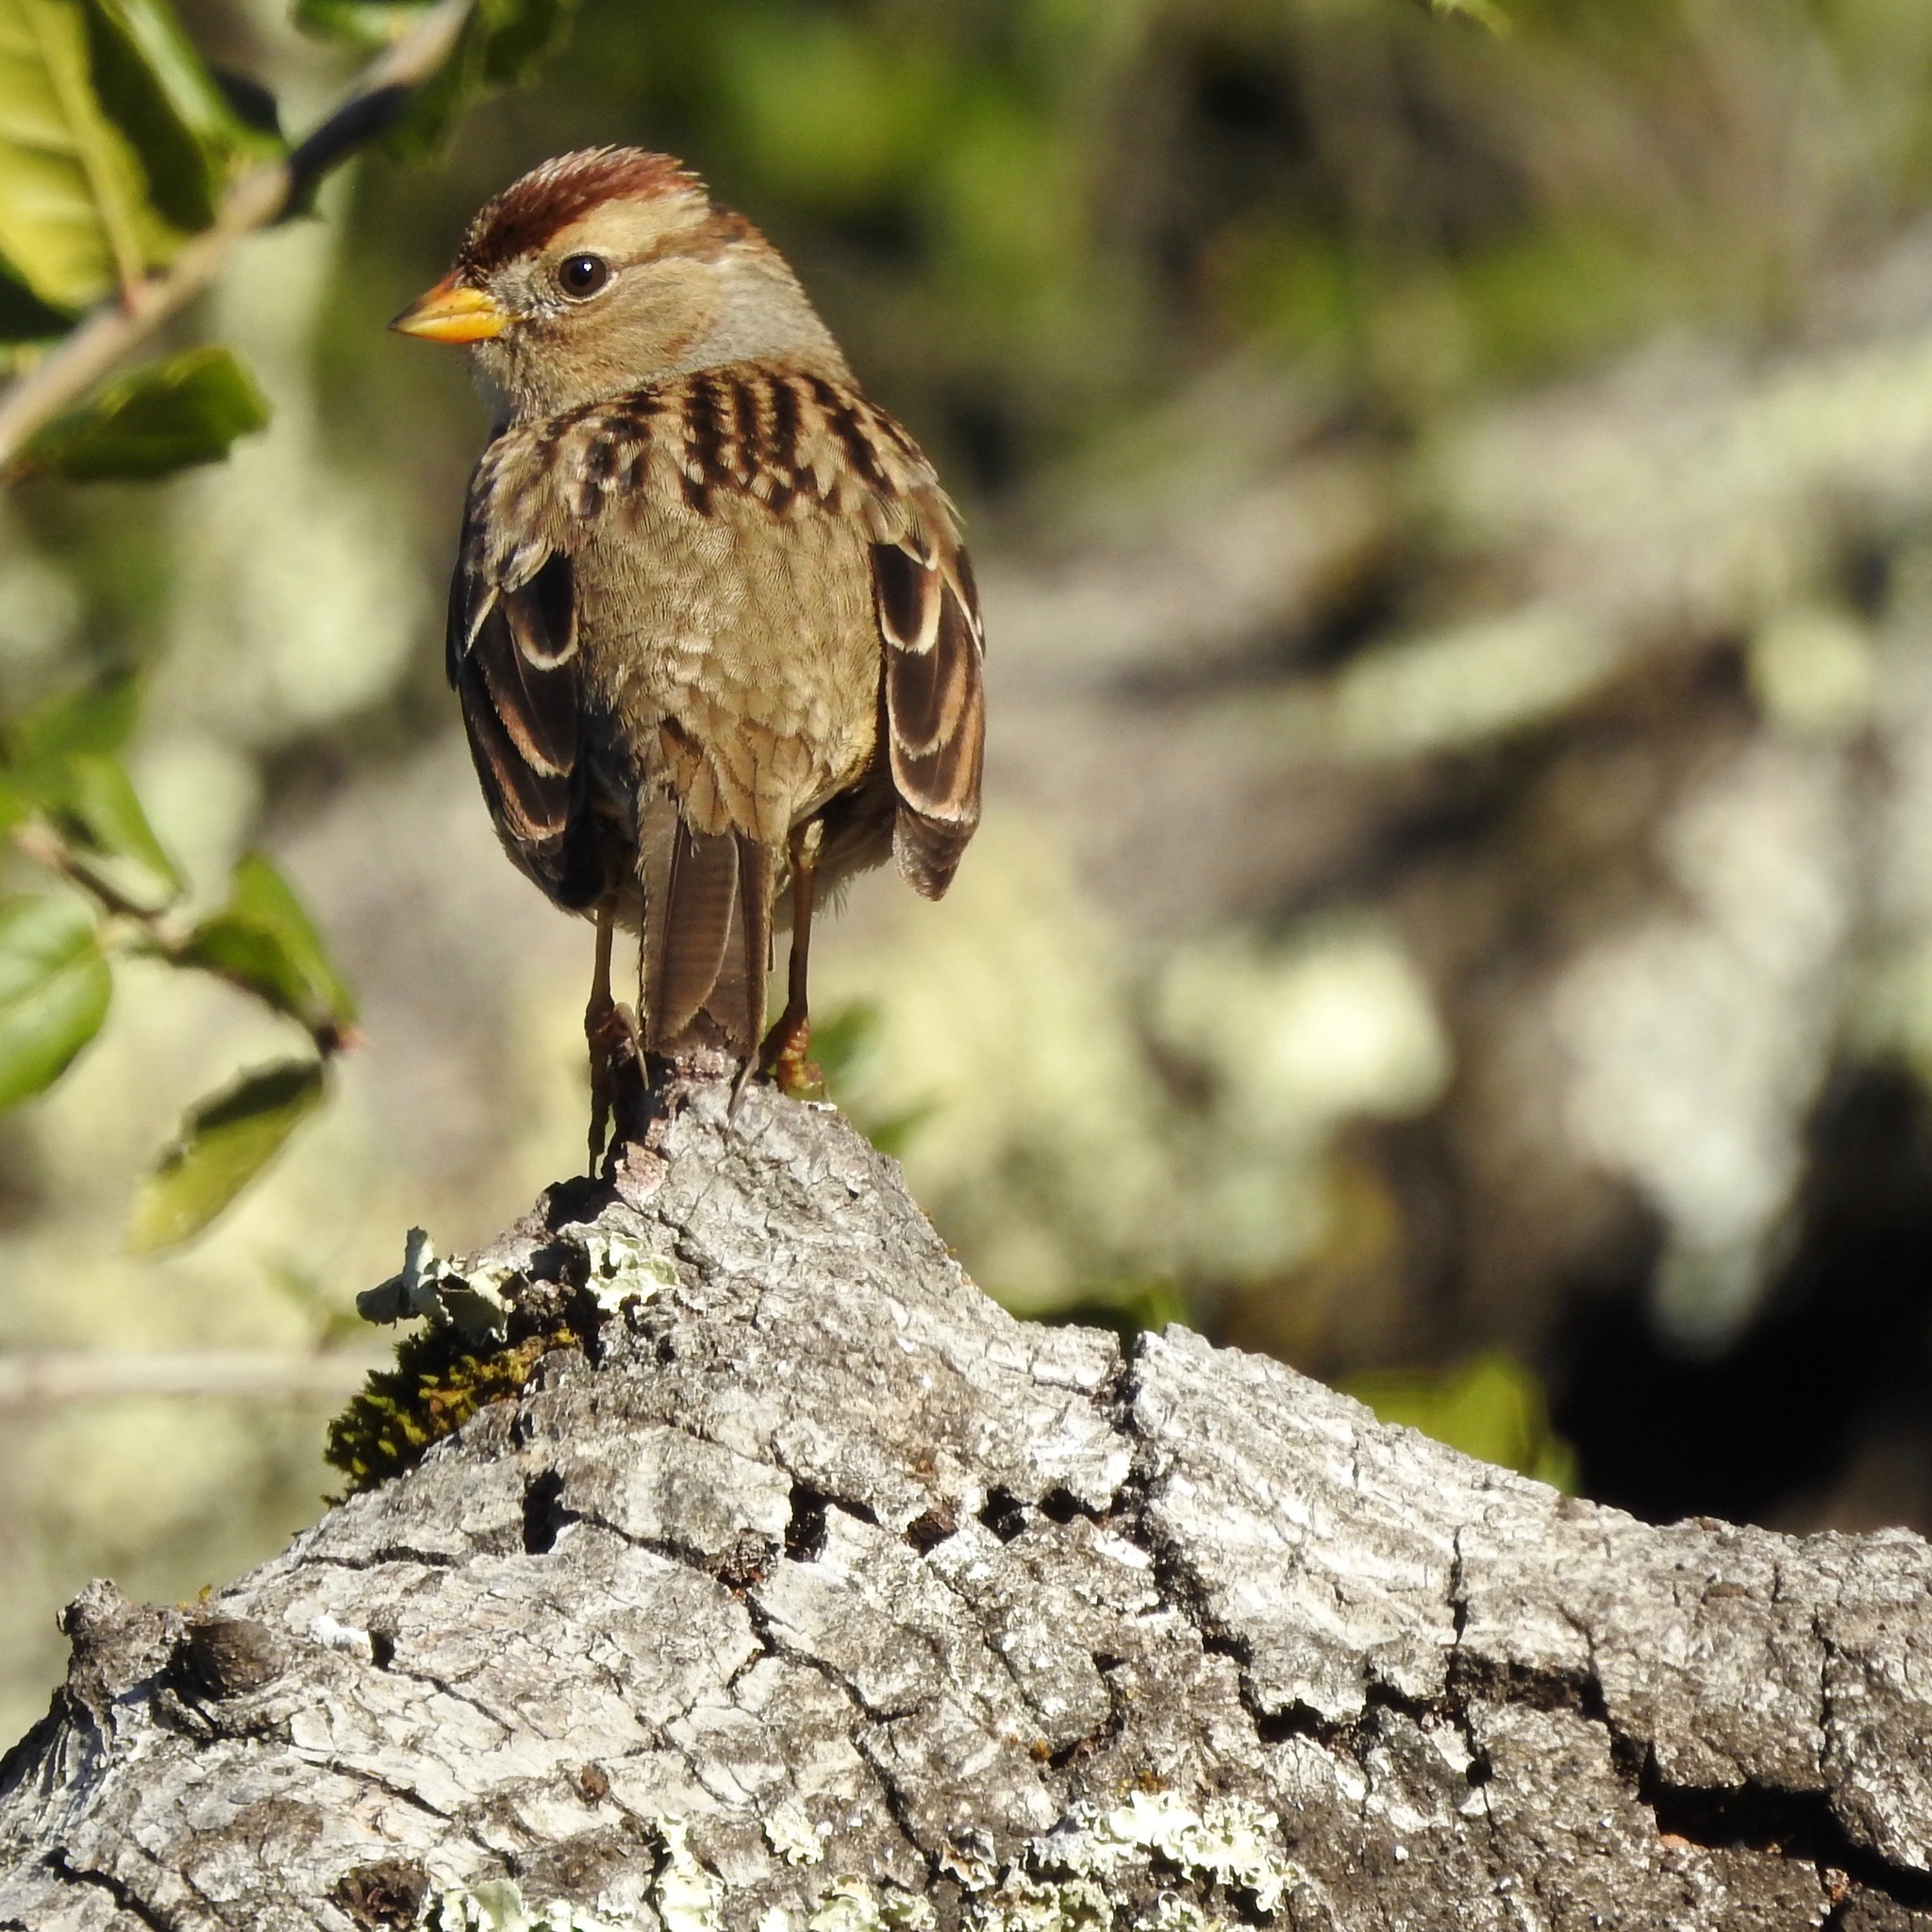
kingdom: Animalia
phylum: Chordata
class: Aves
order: Passeriformes
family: Passerellidae
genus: Zonotrichia
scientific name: Zonotrichia leucophrys
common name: White-crowned sparrow
